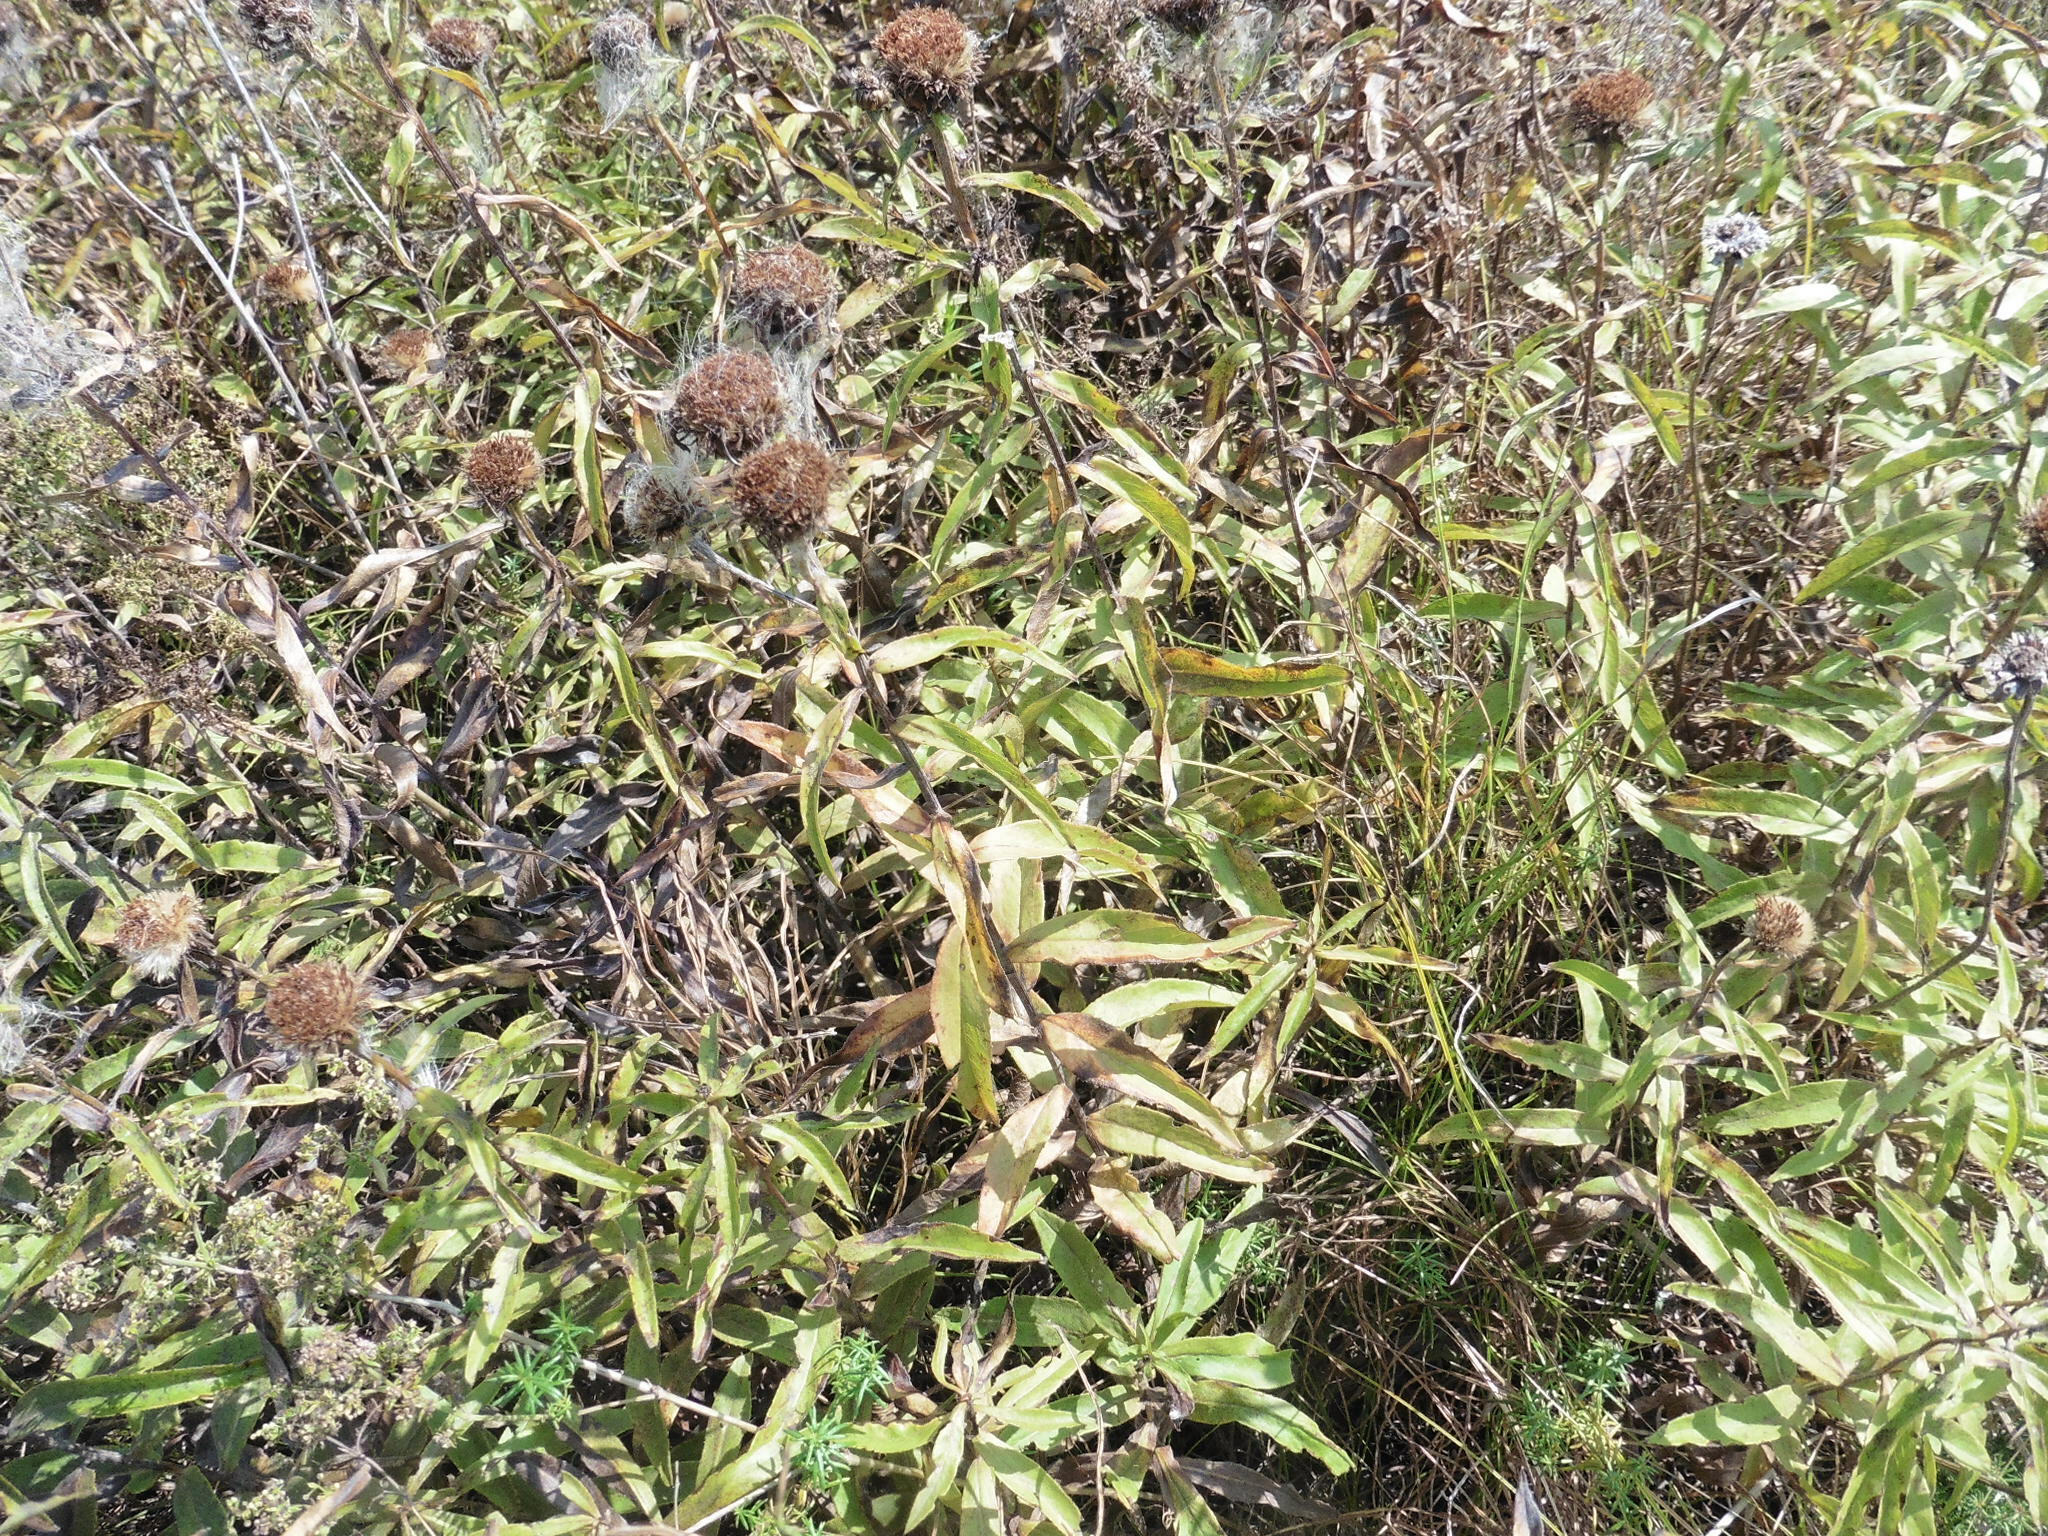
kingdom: Plantae
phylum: Tracheophyta
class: Magnoliopsida
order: Asterales
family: Asteraceae
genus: Pentanema
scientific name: Pentanema salicinum
